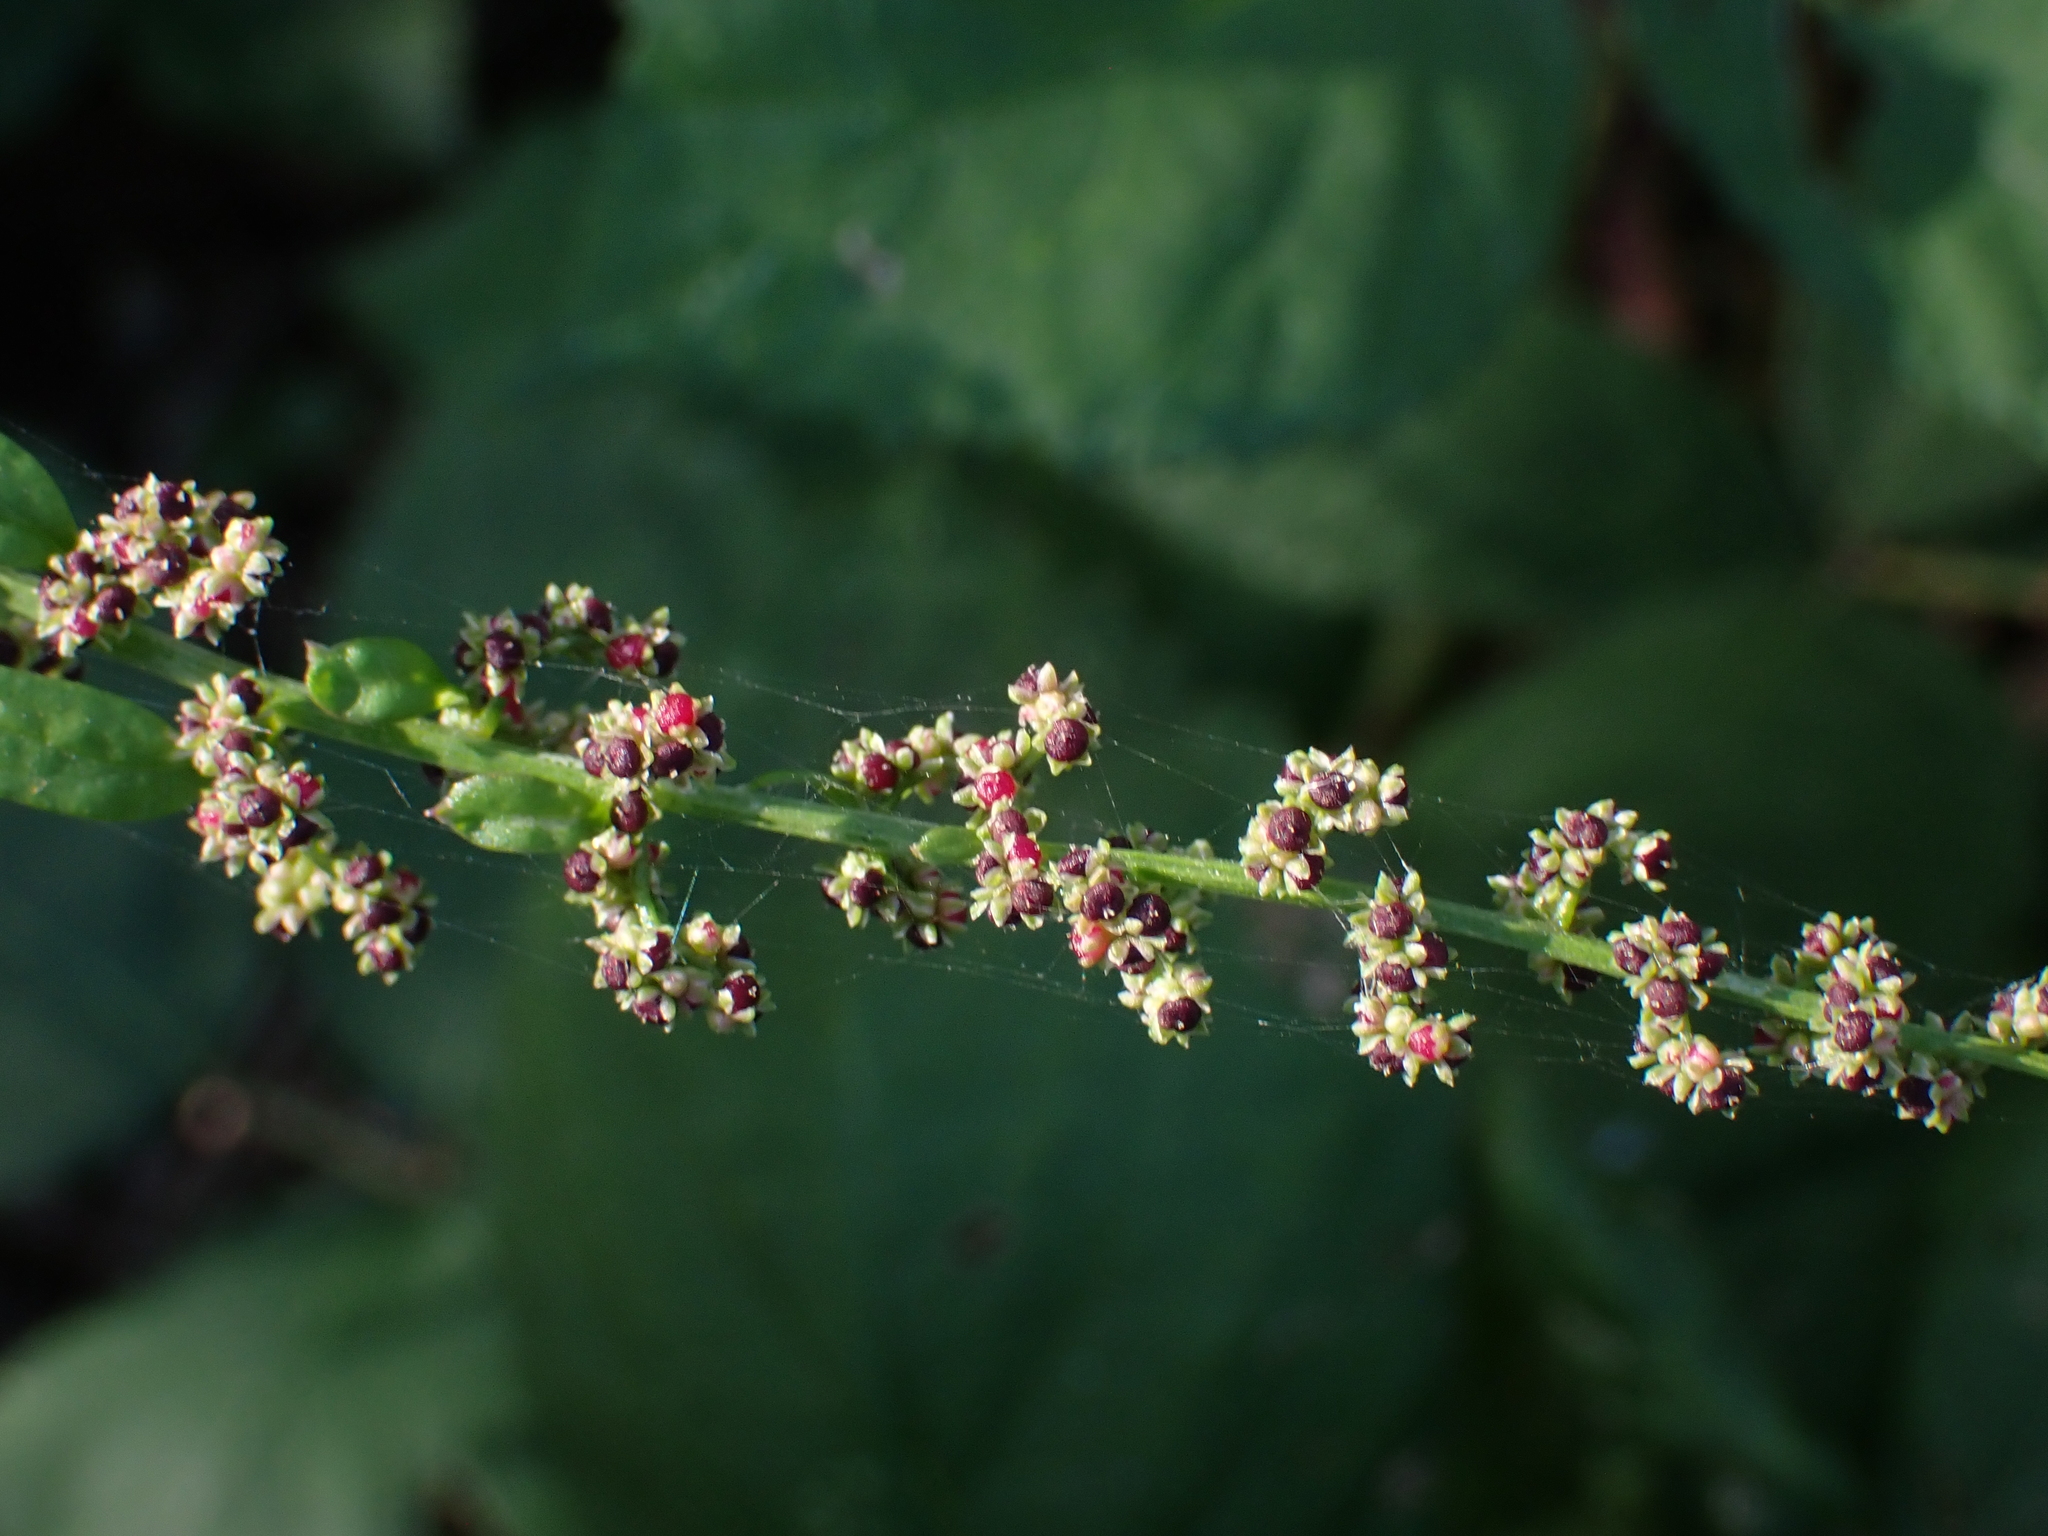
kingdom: Plantae
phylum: Tracheophyta
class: Magnoliopsida
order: Caryophyllales
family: Amaranthaceae
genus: Lipandra
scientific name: Lipandra polysperma
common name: Many-seed goosefoot
